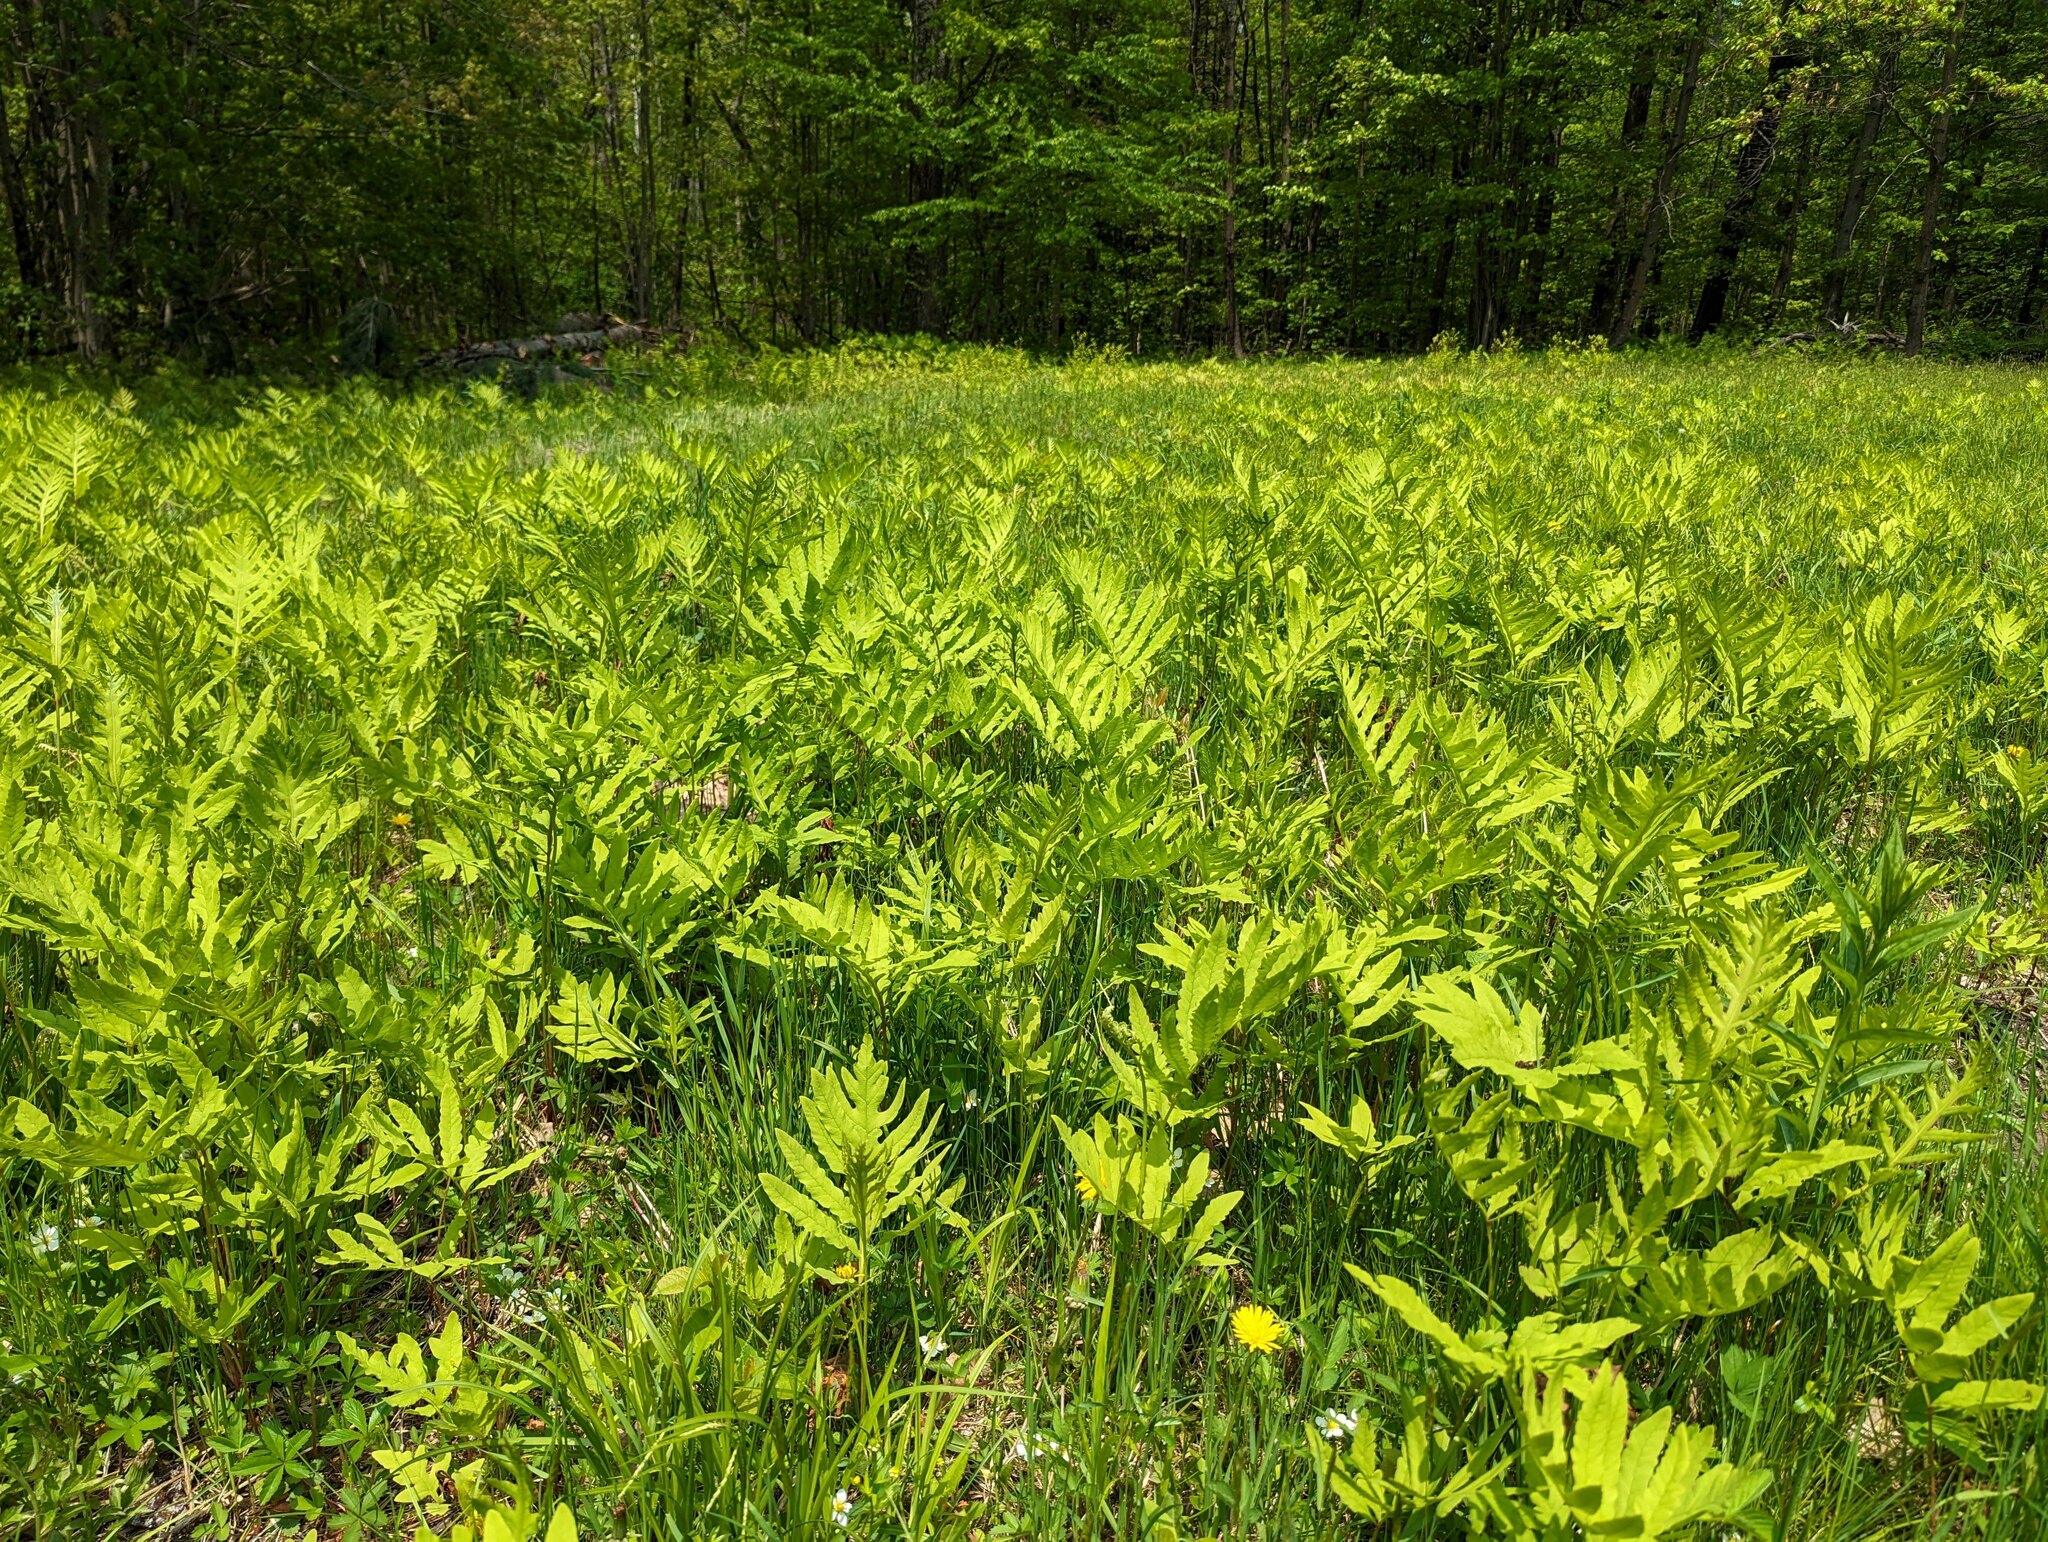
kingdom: Plantae
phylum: Tracheophyta
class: Polypodiopsida
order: Polypodiales
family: Onocleaceae
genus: Onoclea
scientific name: Onoclea sensibilis
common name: Sensitive fern
